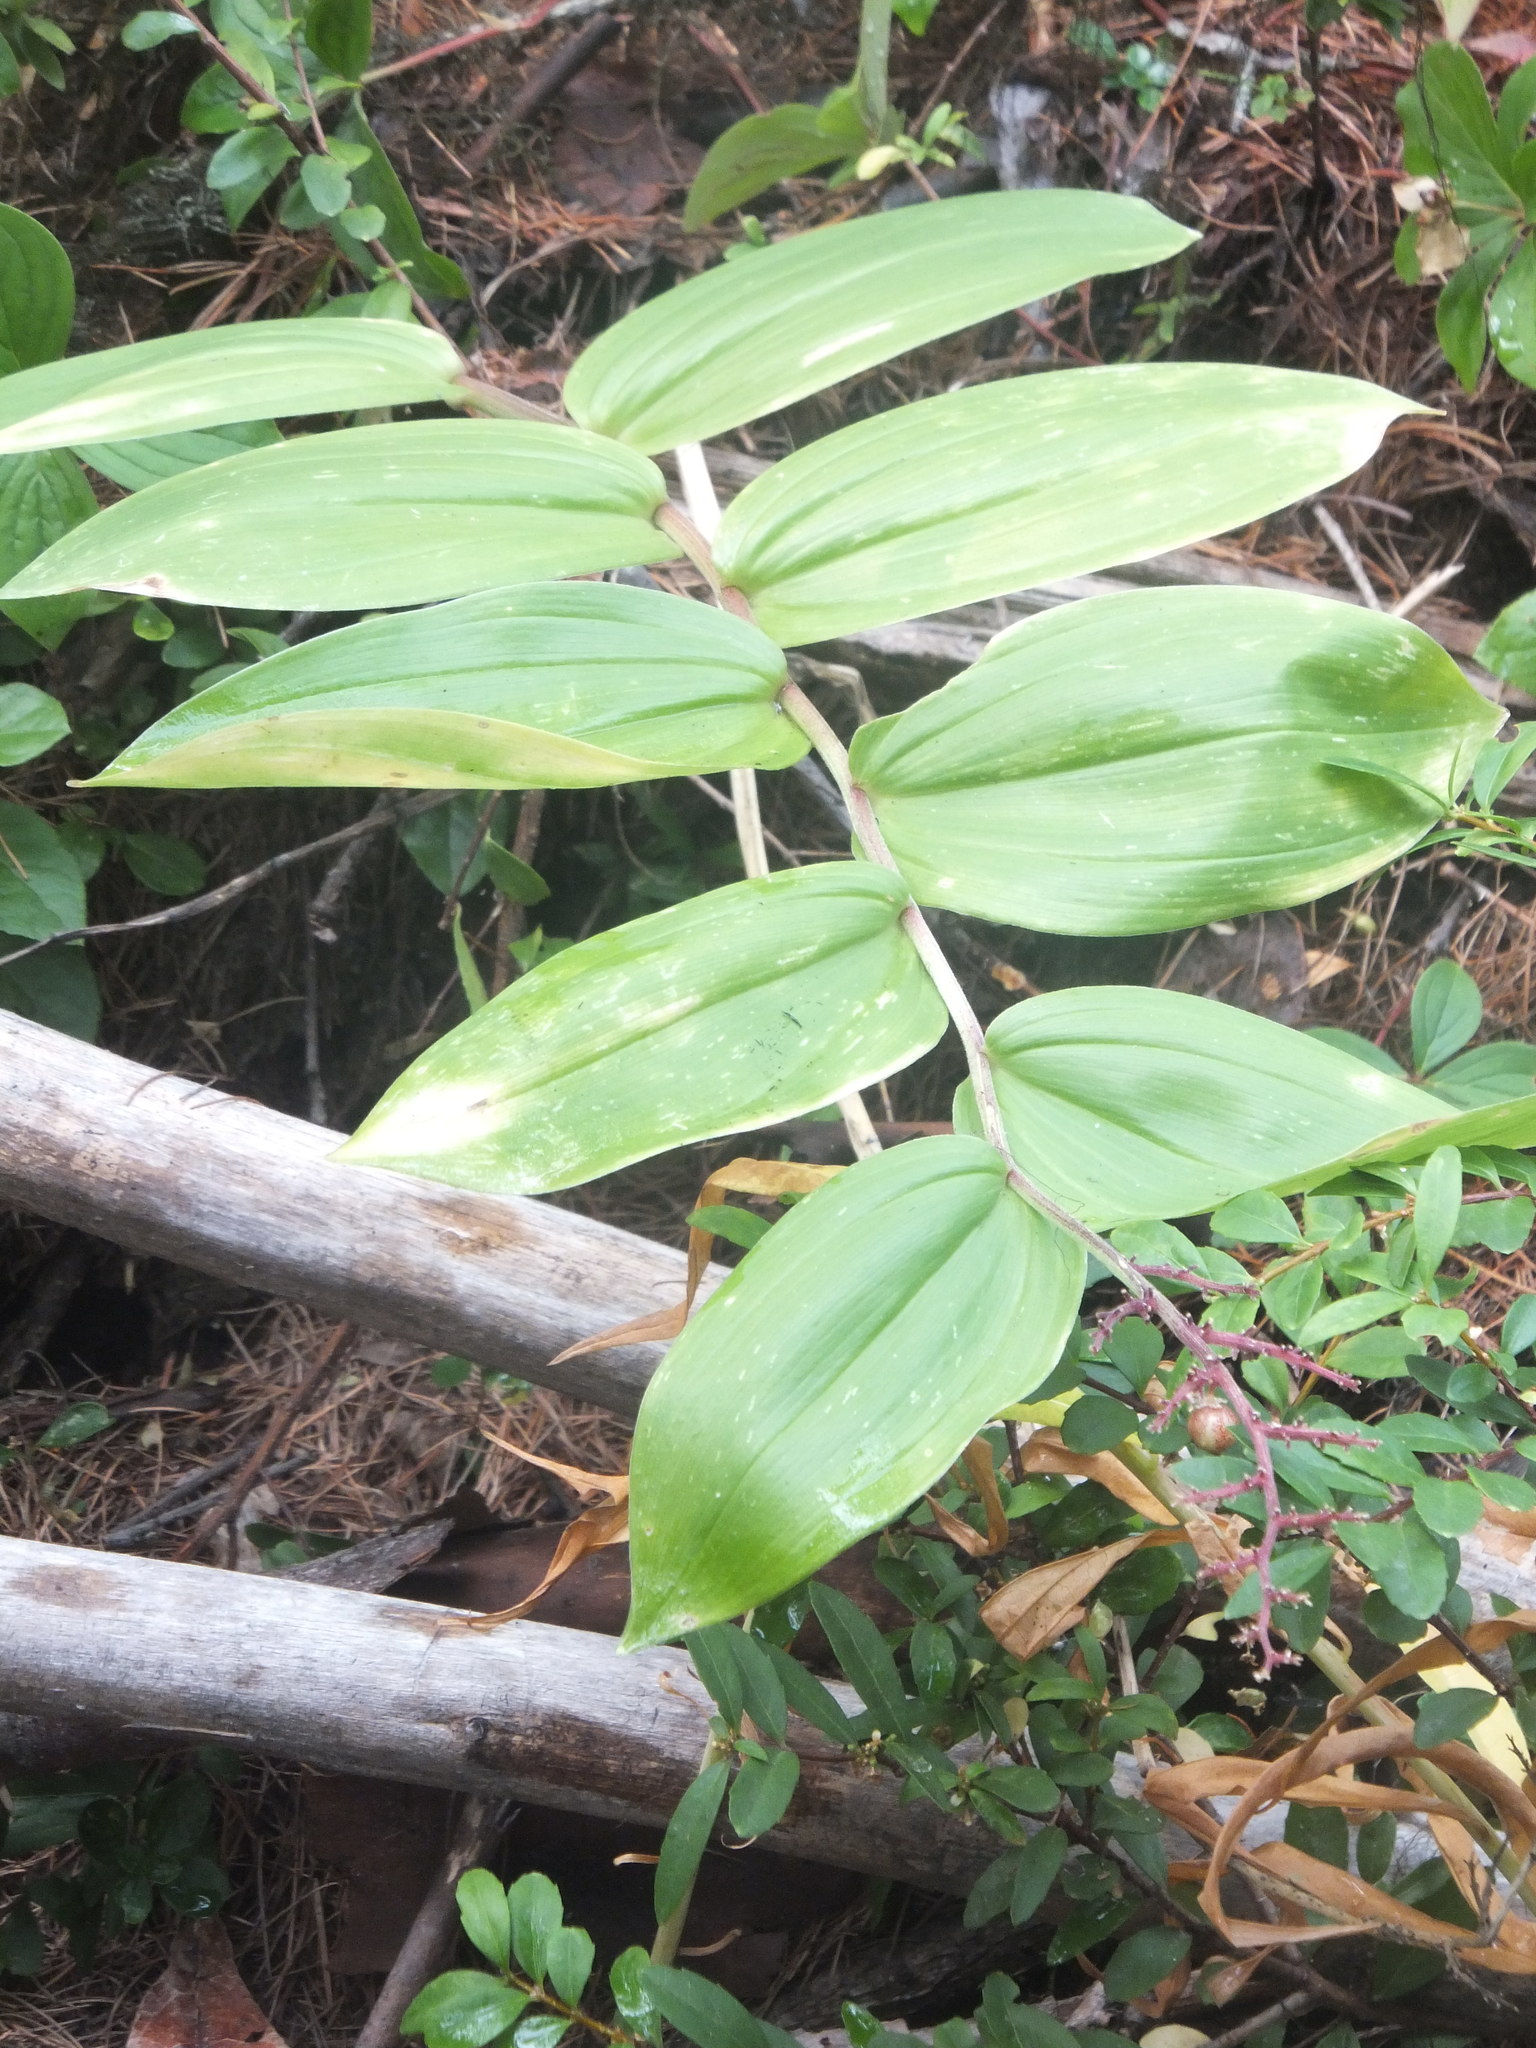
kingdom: Plantae
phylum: Tracheophyta
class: Liliopsida
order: Asparagales
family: Asparagaceae
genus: Maianthemum
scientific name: Maianthemum racemosum
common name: False spikenard
